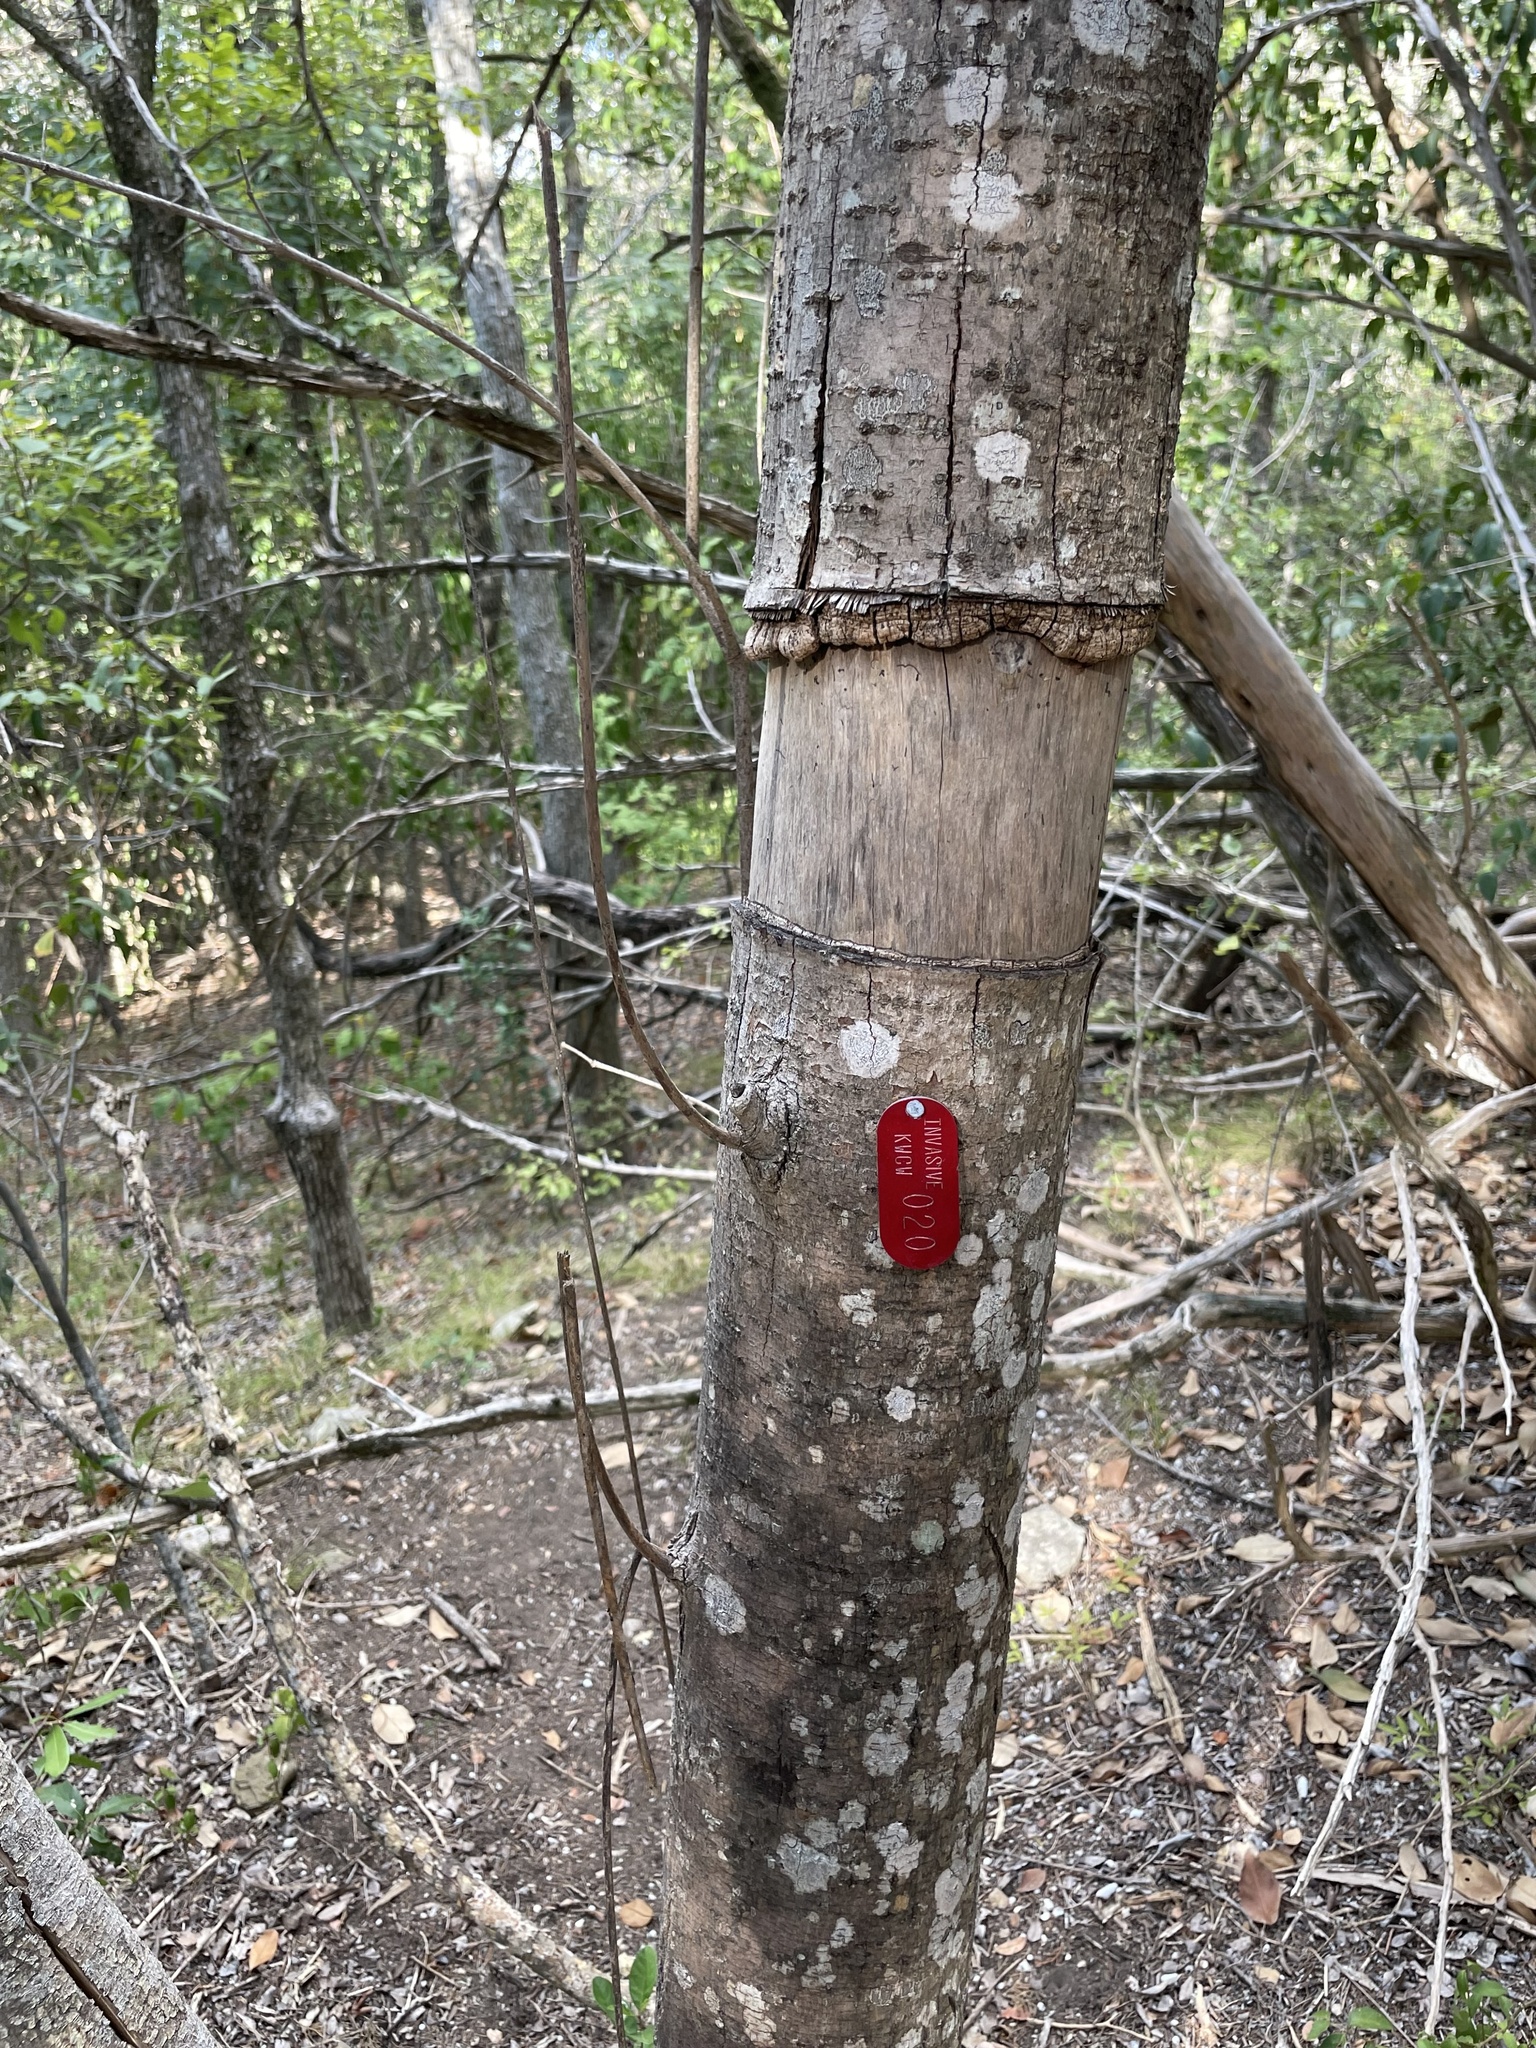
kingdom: Plantae
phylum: Tracheophyta
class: Magnoliopsida
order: Lamiales
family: Oleaceae
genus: Ligustrum
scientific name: Ligustrum lucidum
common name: Glossy privet
